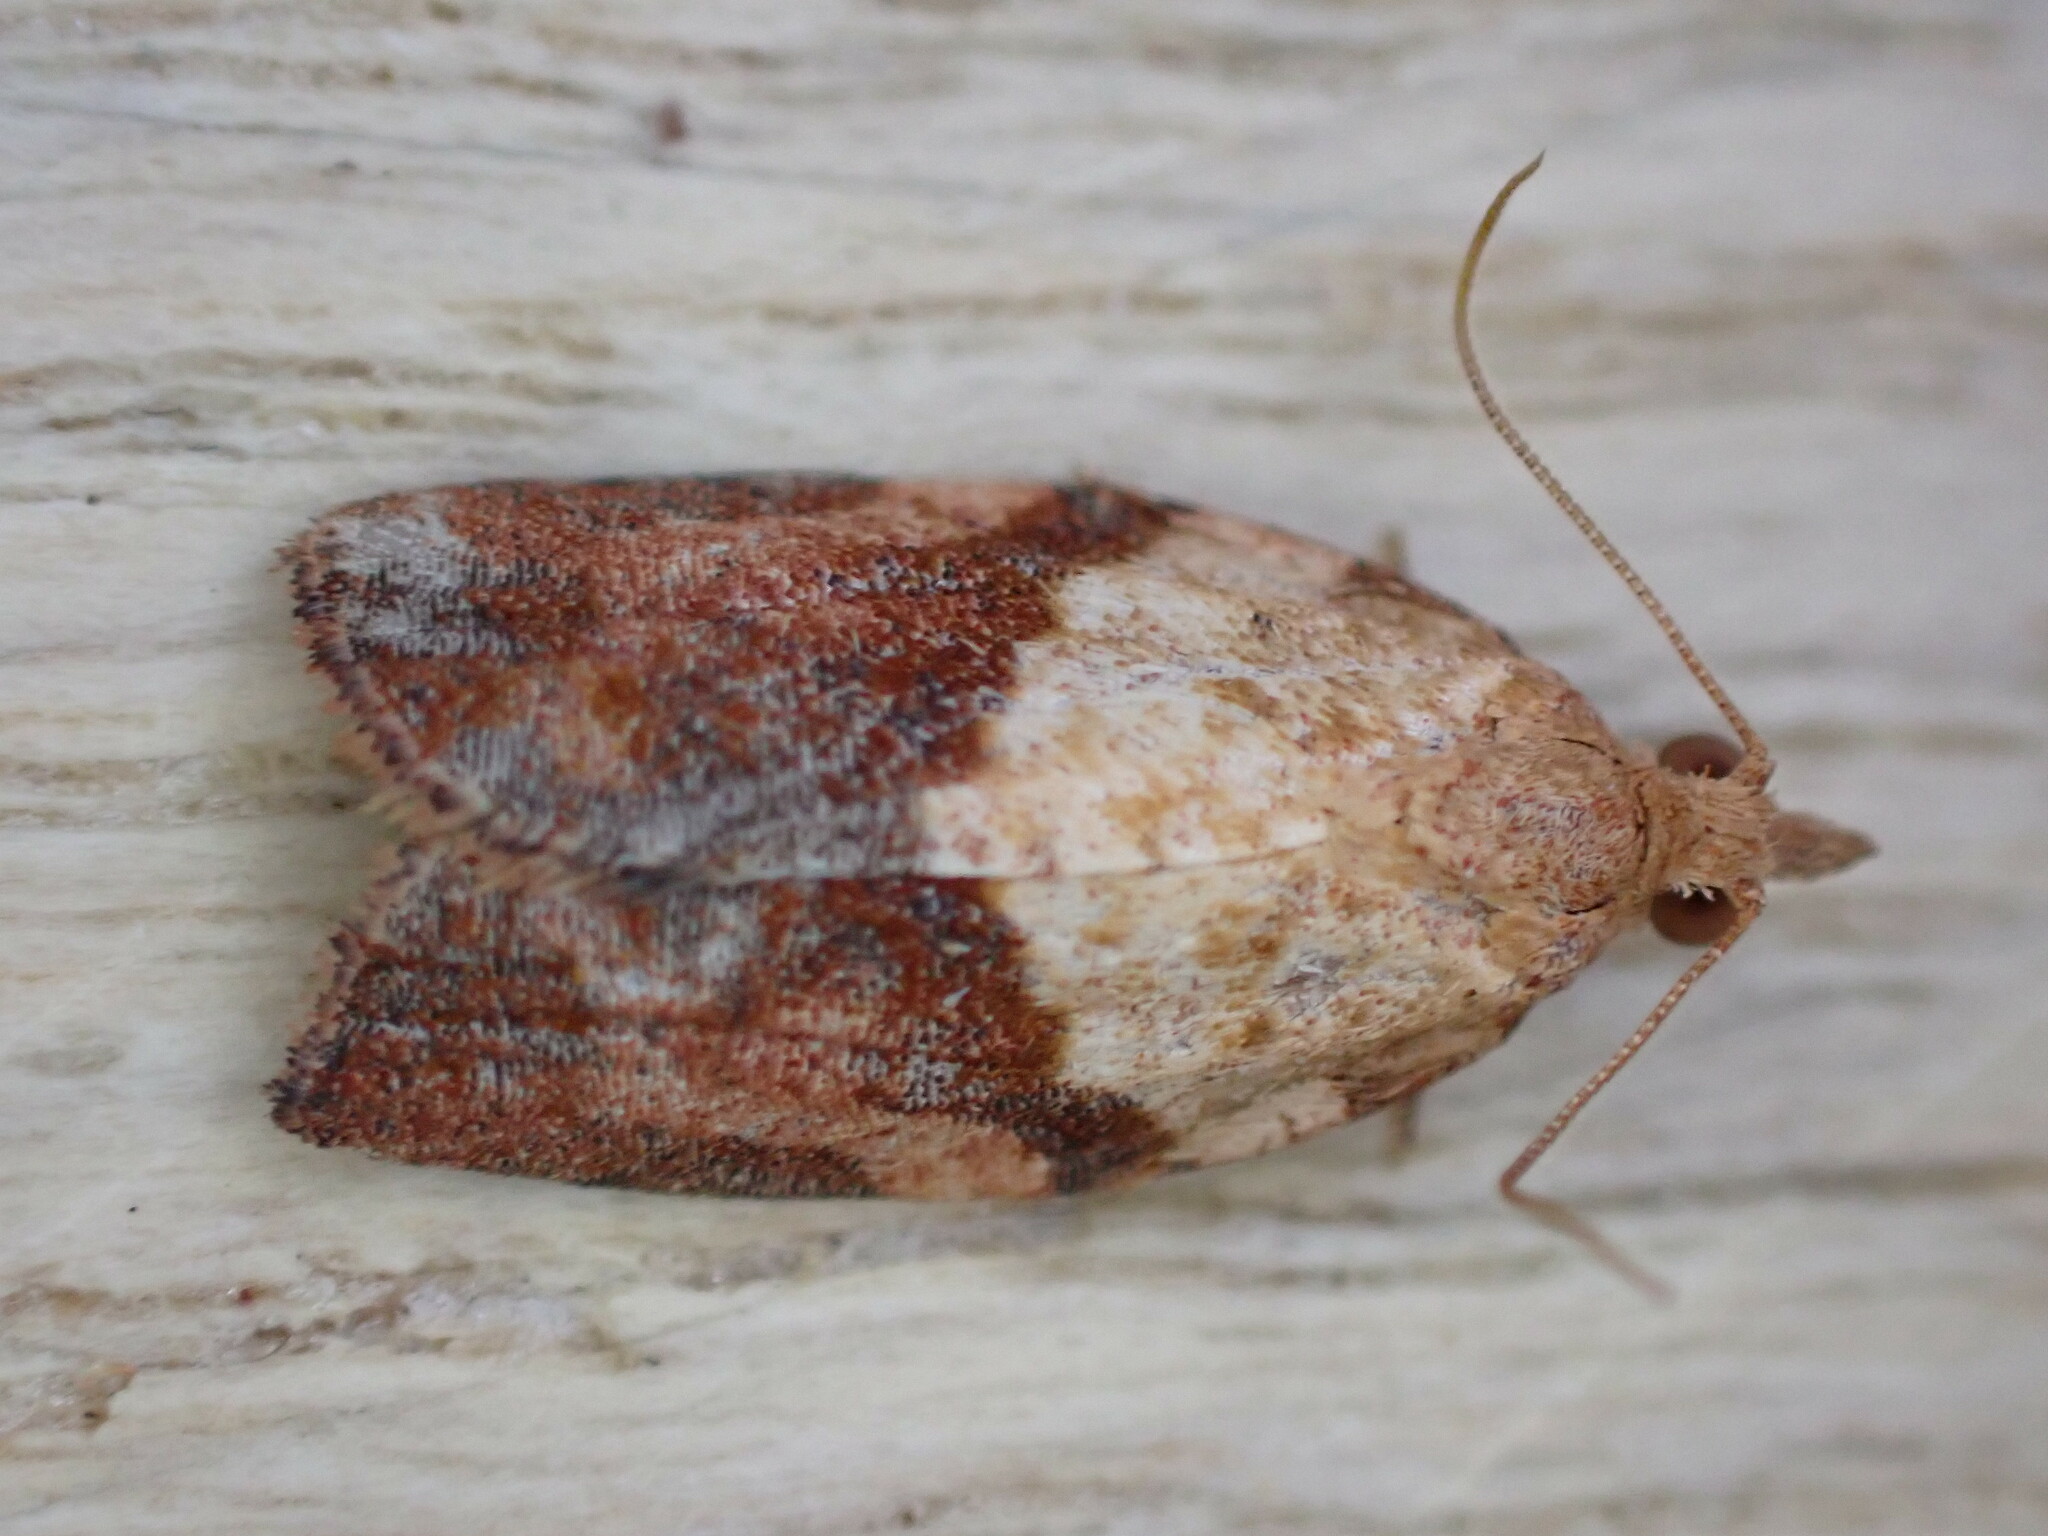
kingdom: Animalia
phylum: Arthropoda
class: Insecta
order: Lepidoptera
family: Tortricidae
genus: Epiphyas
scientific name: Epiphyas postvittana
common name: Light brown apple moth
